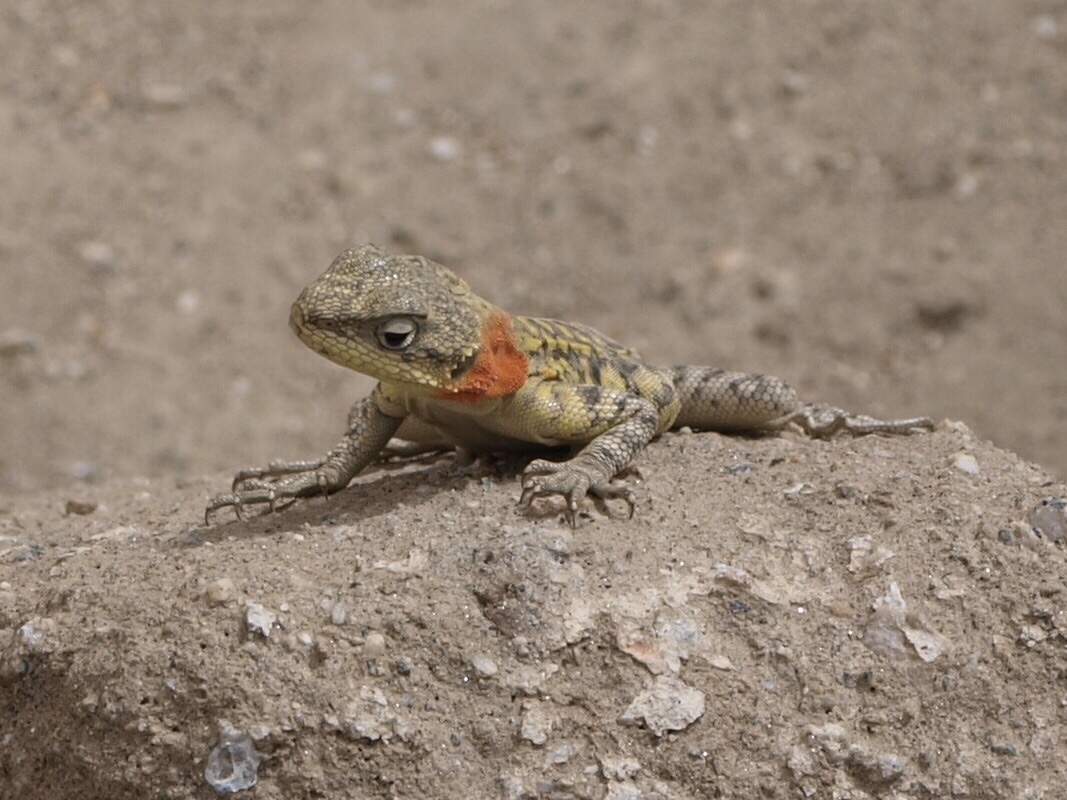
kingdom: Animalia
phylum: Chordata
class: Squamata
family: Agamidae
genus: Paralaudakia
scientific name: Paralaudakia himalayana
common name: Himalayan agama
